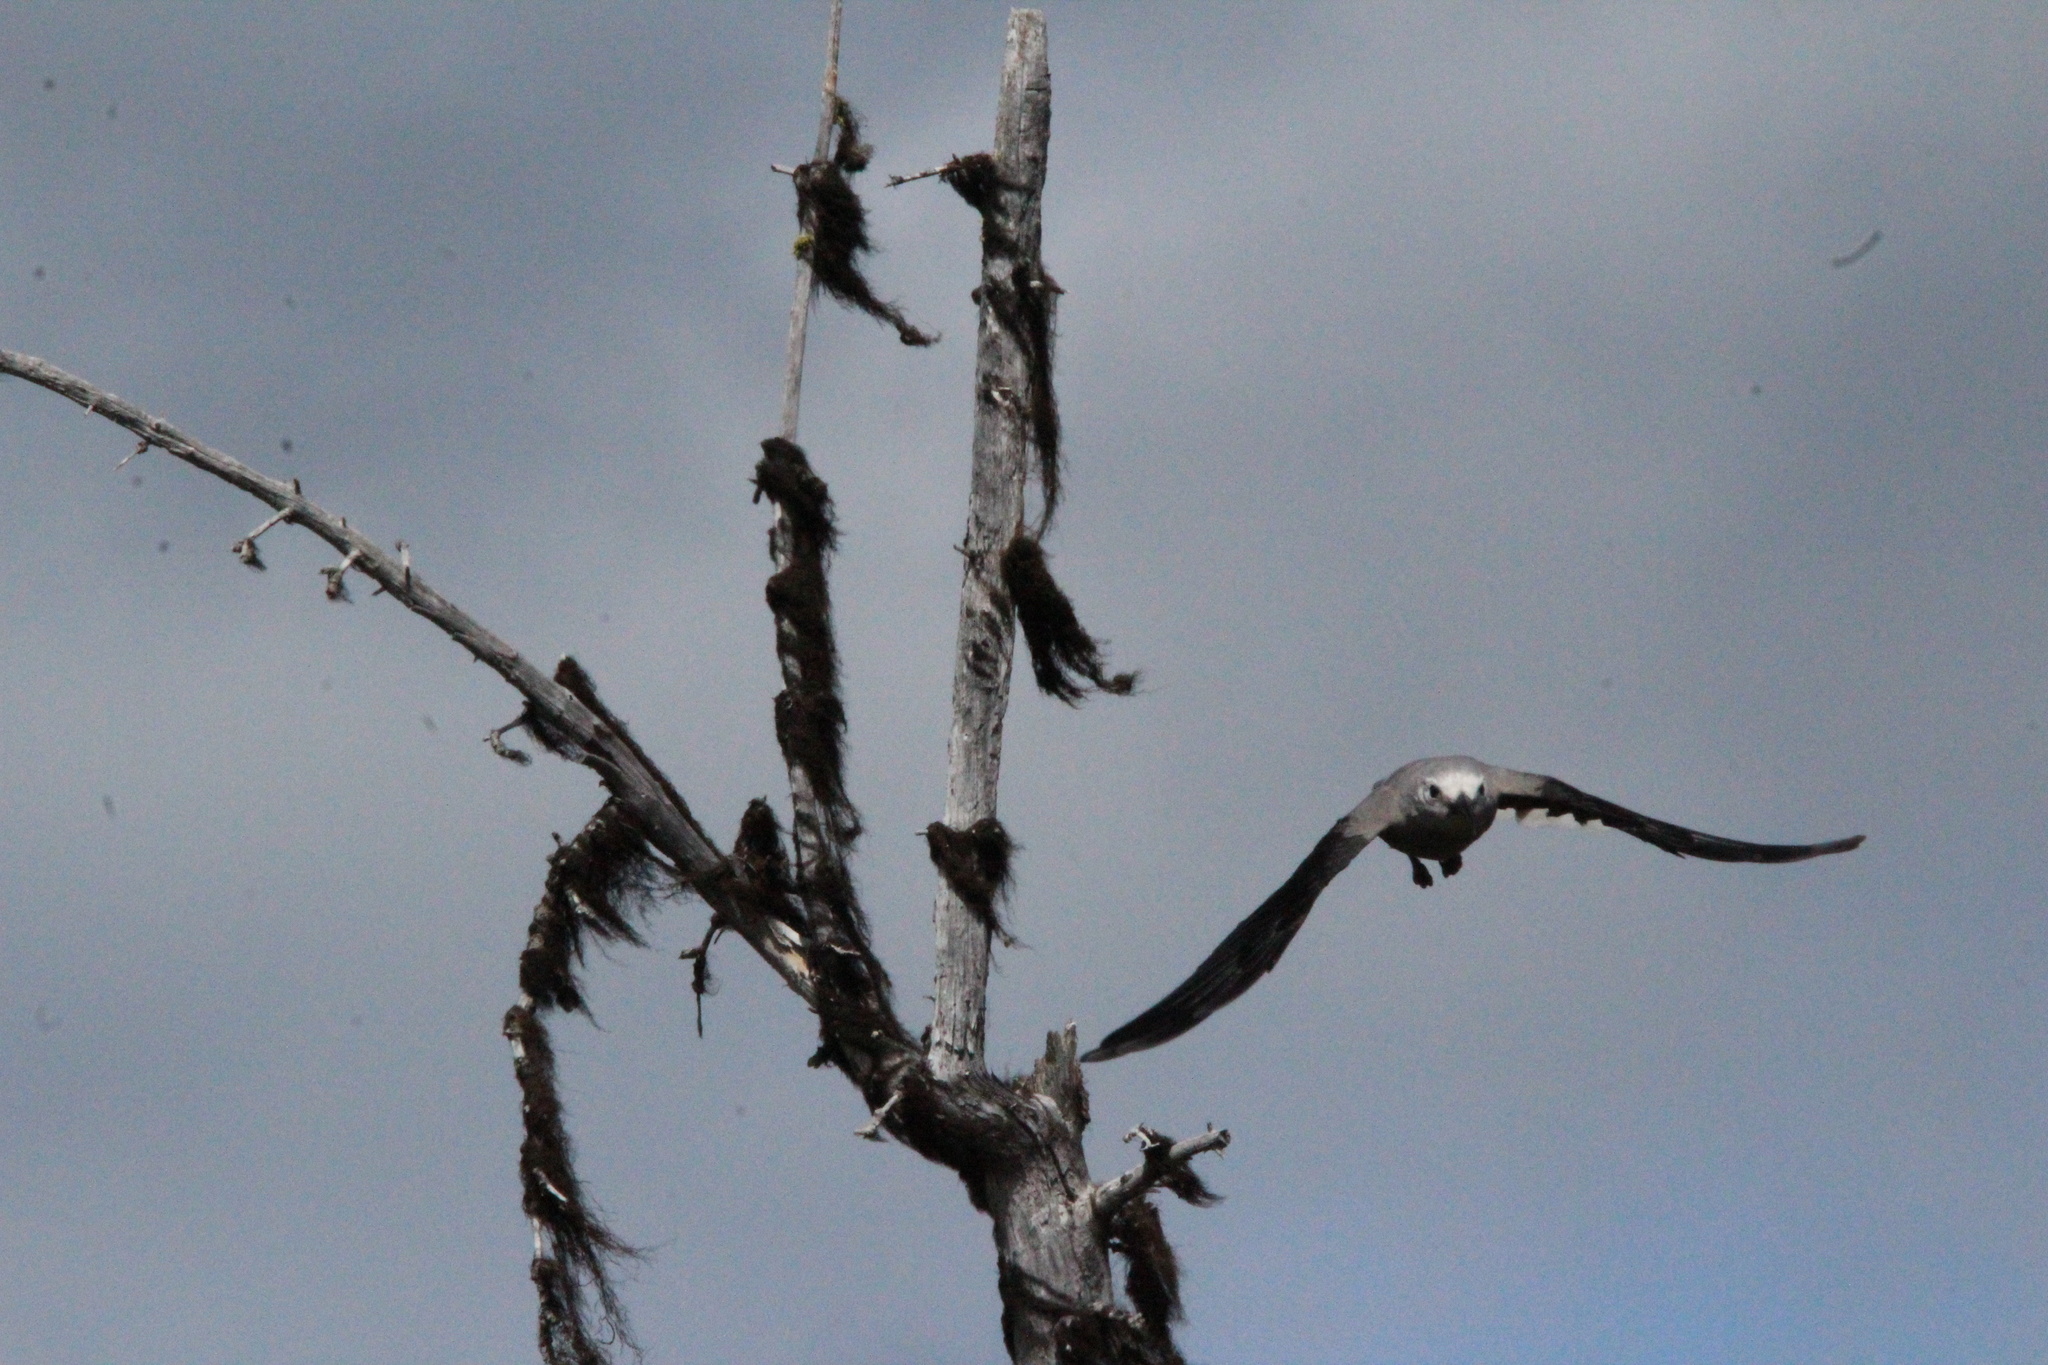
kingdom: Animalia
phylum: Chordata
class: Aves
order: Passeriformes
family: Corvidae
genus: Nucifraga
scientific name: Nucifraga columbiana
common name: Clark's nutcracker
